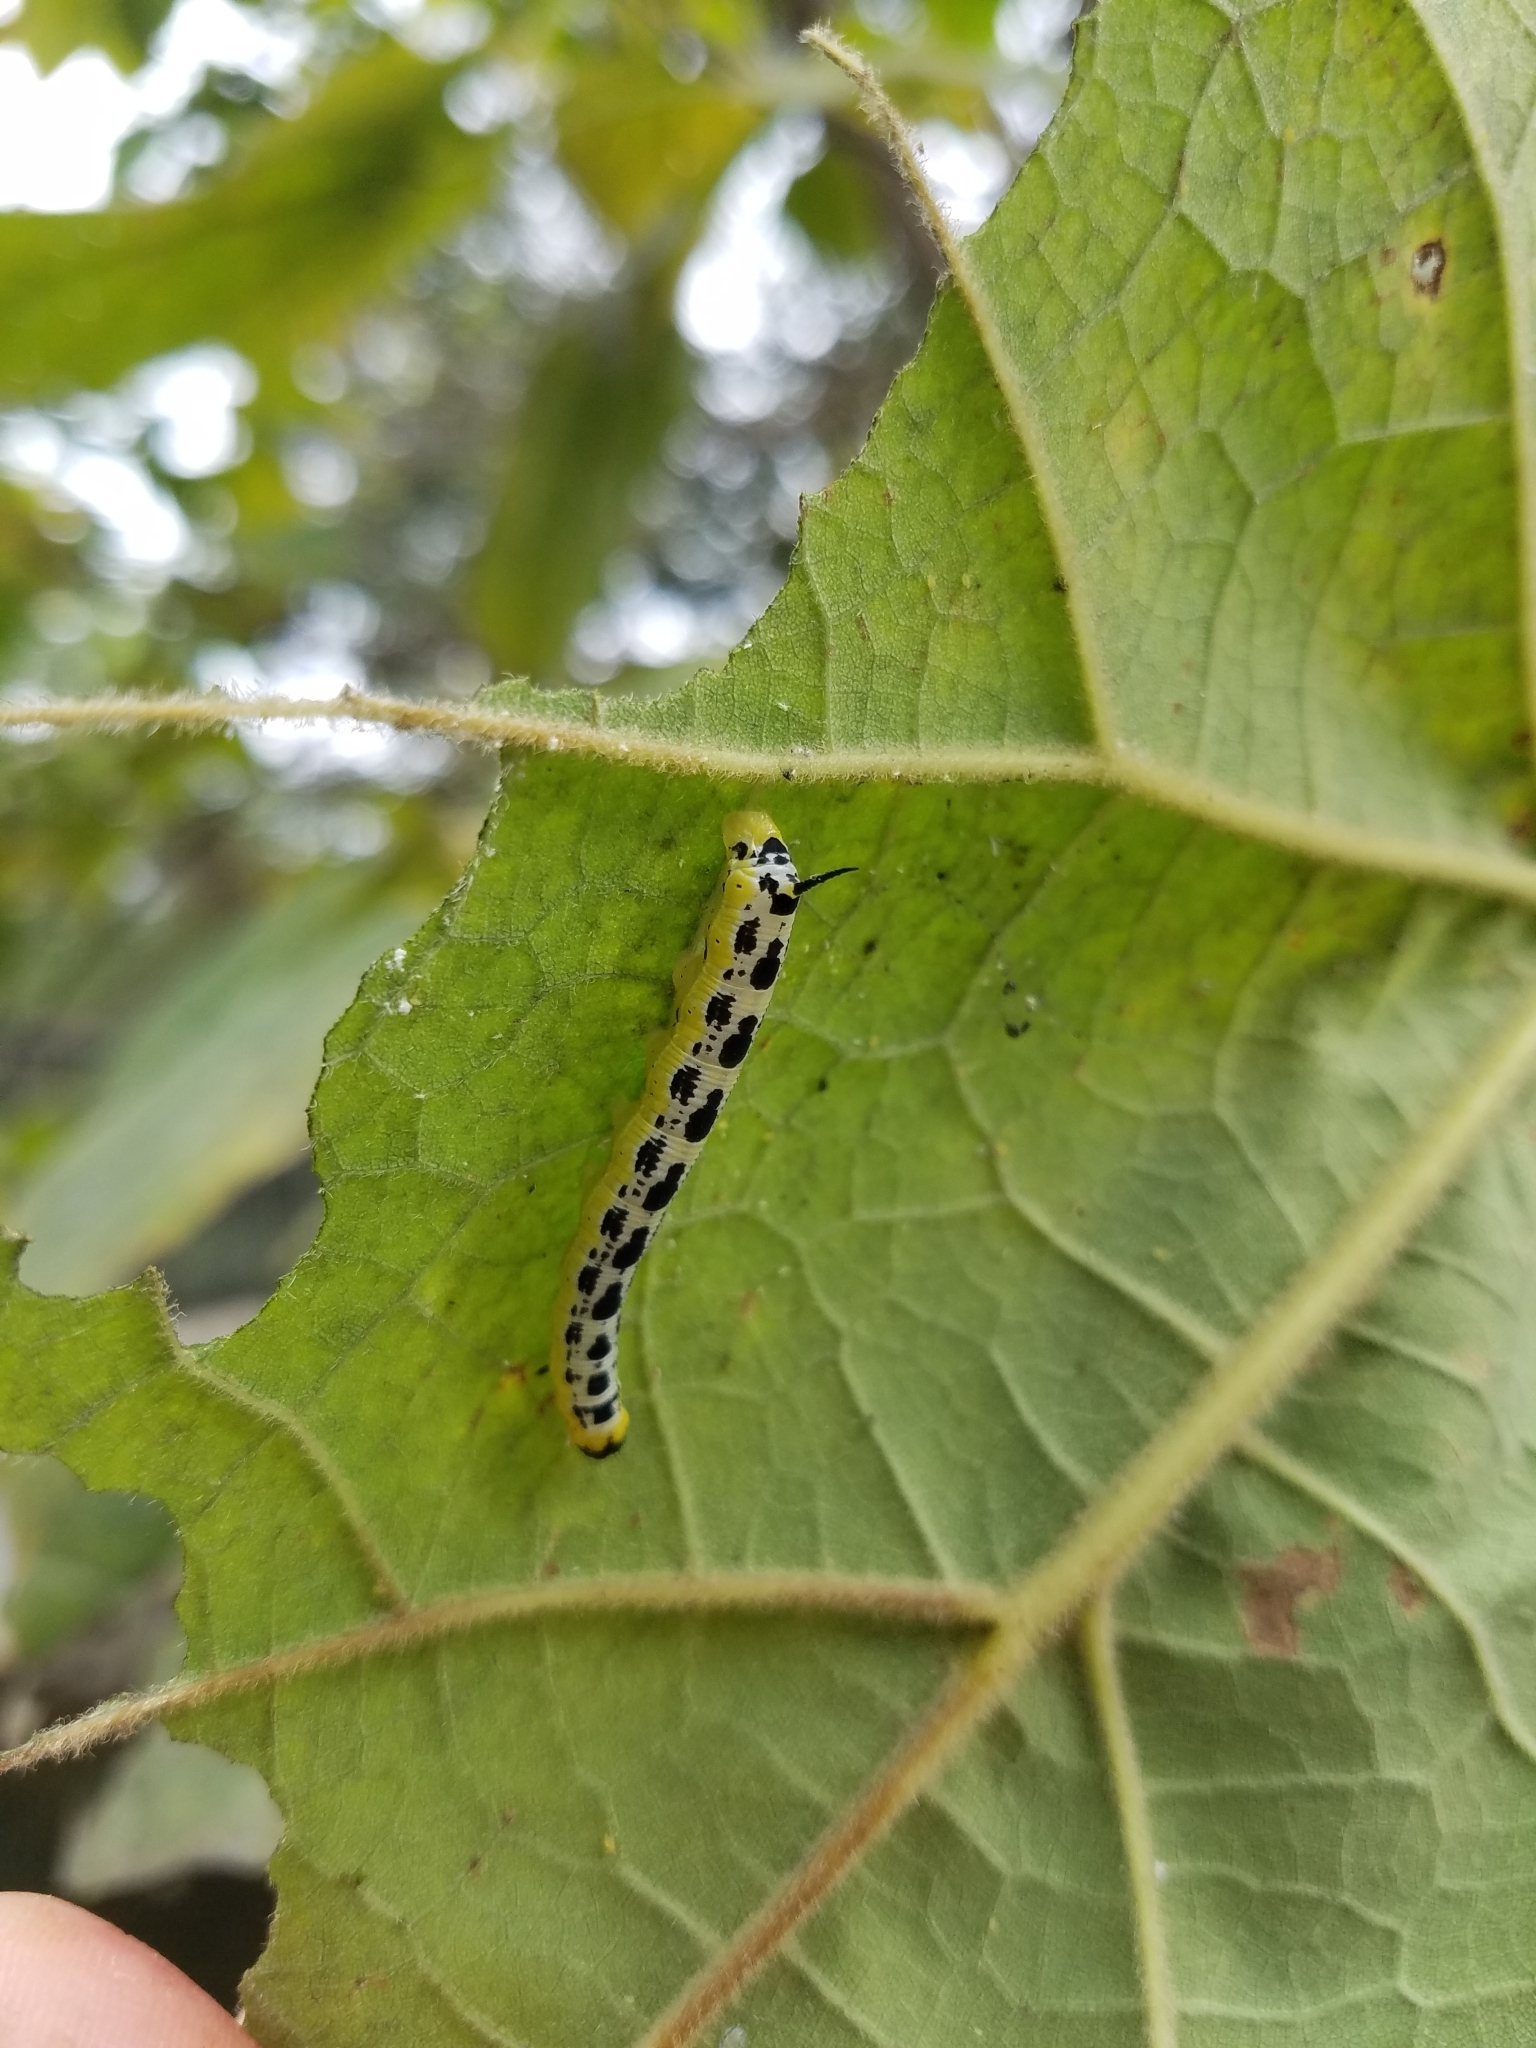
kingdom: Animalia
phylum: Arthropoda
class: Insecta
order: Lepidoptera
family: Sphingidae
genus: Ceratomia
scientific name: Ceratomia catalpae
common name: Catalpa hornworm
